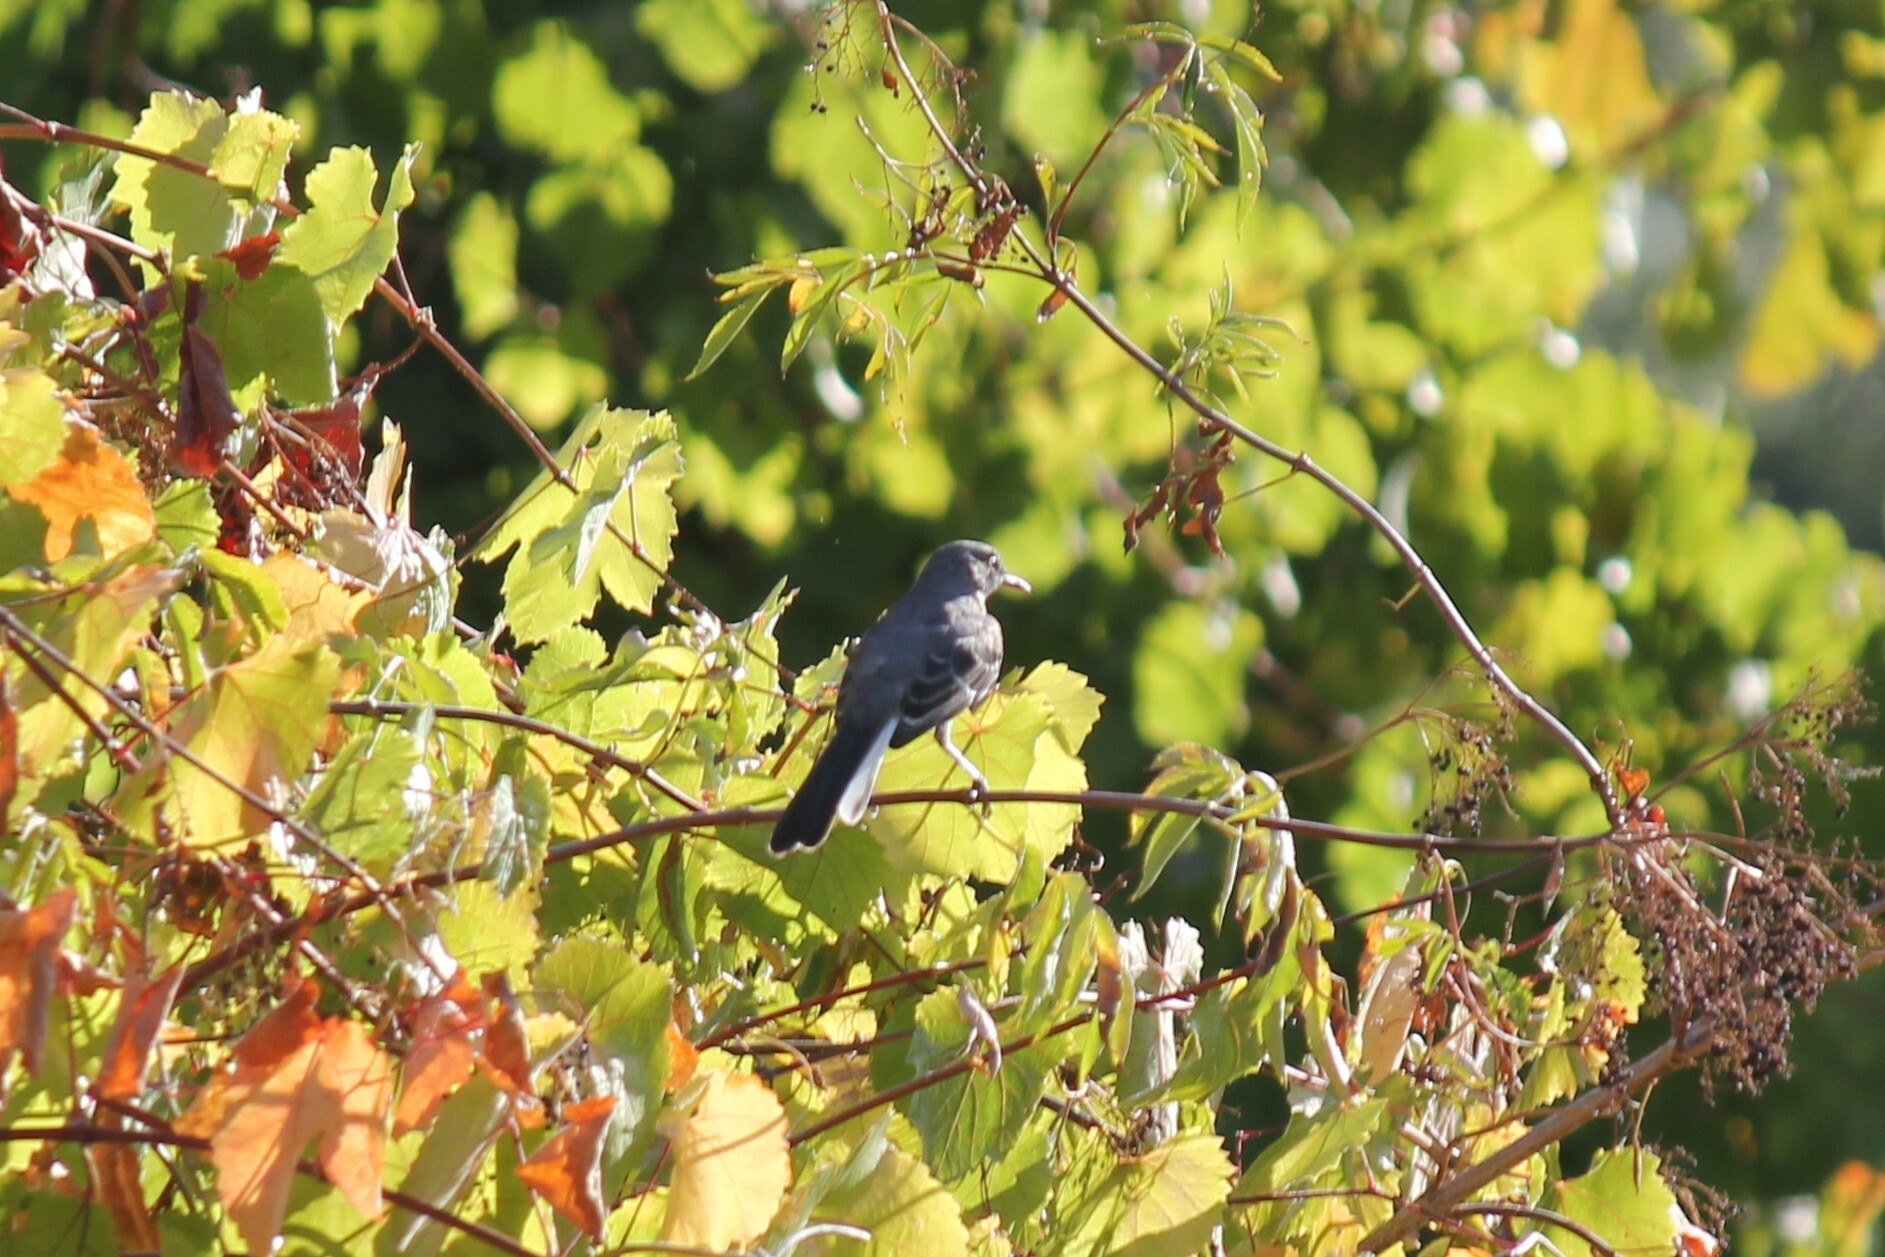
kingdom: Animalia
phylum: Chordata
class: Aves
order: Passeriformes
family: Mimidae
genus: Mimus
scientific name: Mimus polyglottos
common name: Northern mockingbird
